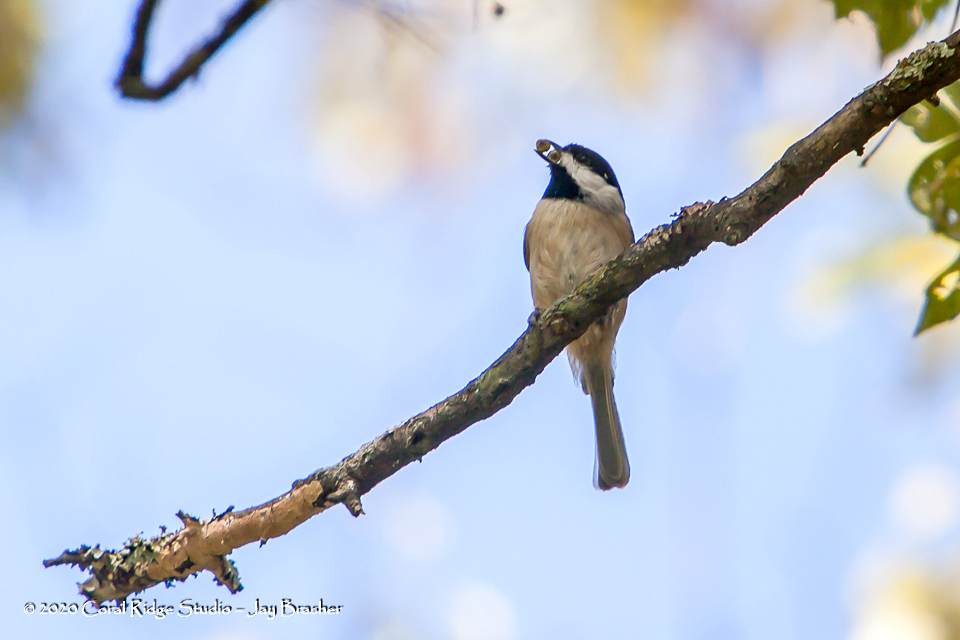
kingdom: Animalia
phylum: Chordata
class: Aves
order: Passeriformes
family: Paridae
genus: Poecile
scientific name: Poecile carolinensis
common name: Carolina chickadee
